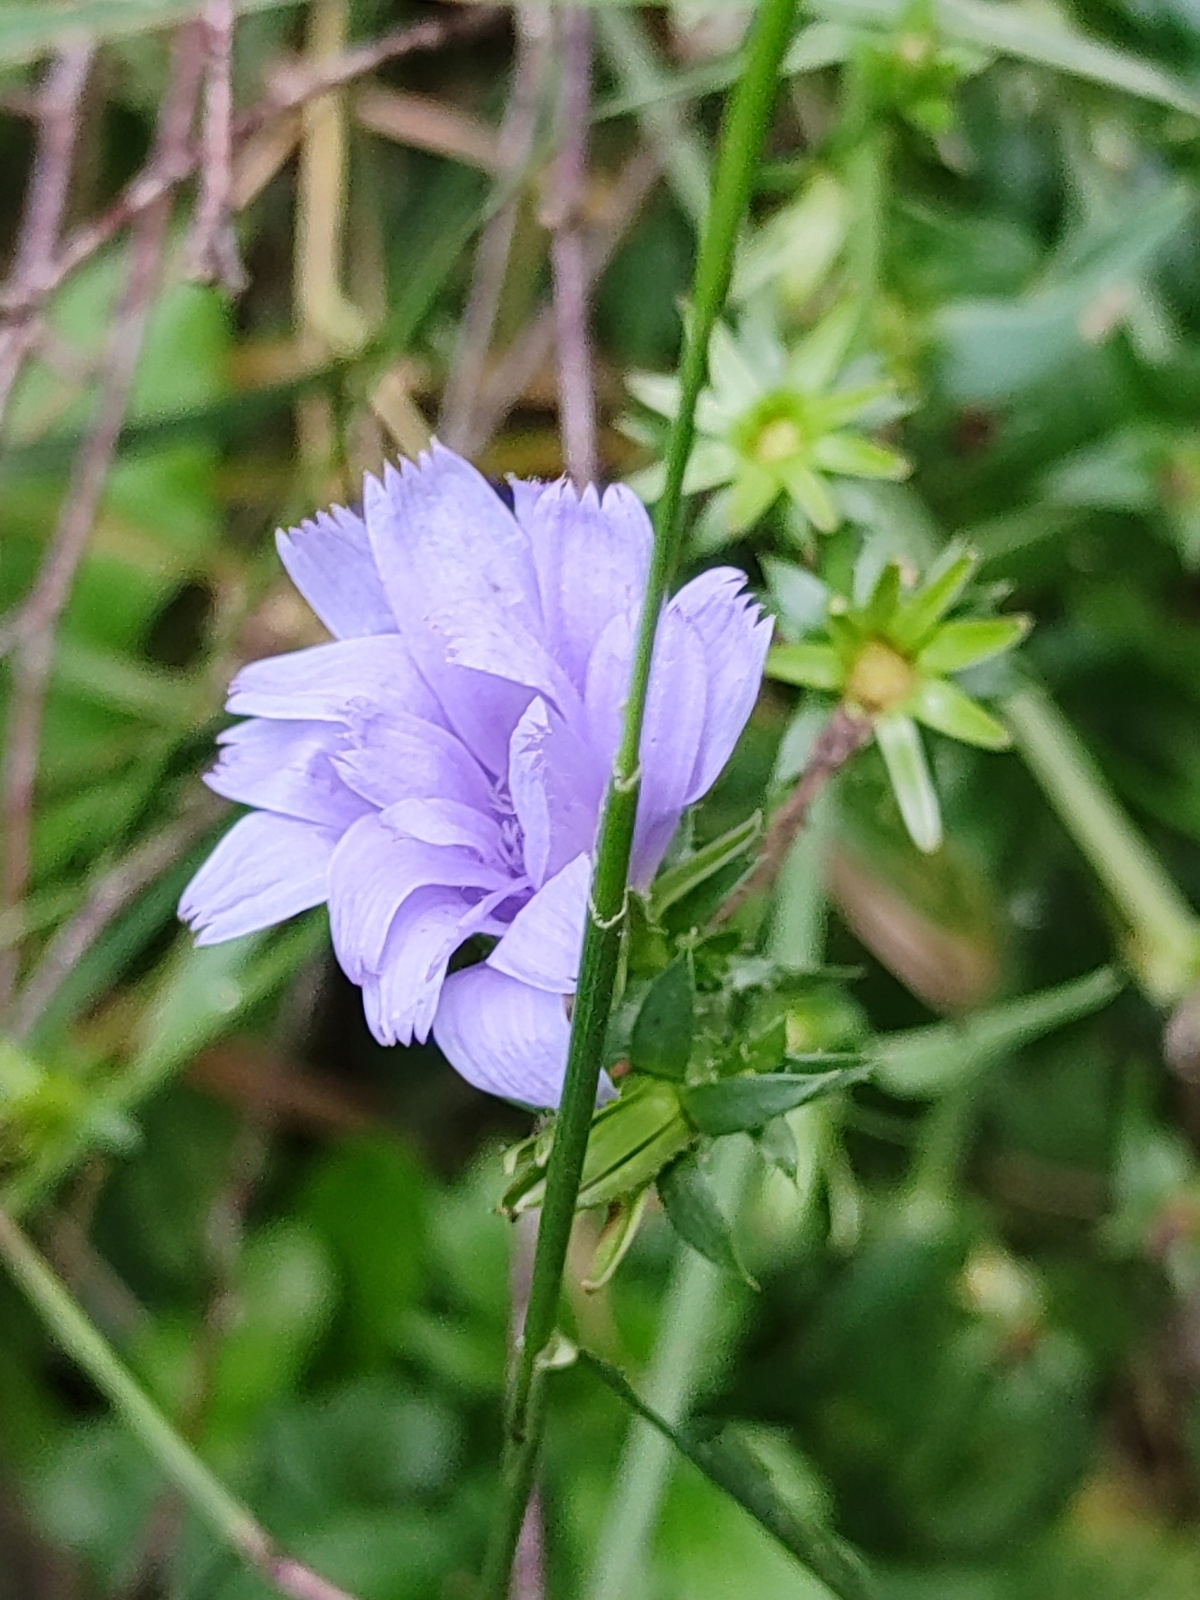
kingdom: Plantae
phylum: Tracheophyta
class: Magnoliopsida
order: Asterales
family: Asteraceae
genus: Cichorium
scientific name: Cichorium intybus
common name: Chicory
